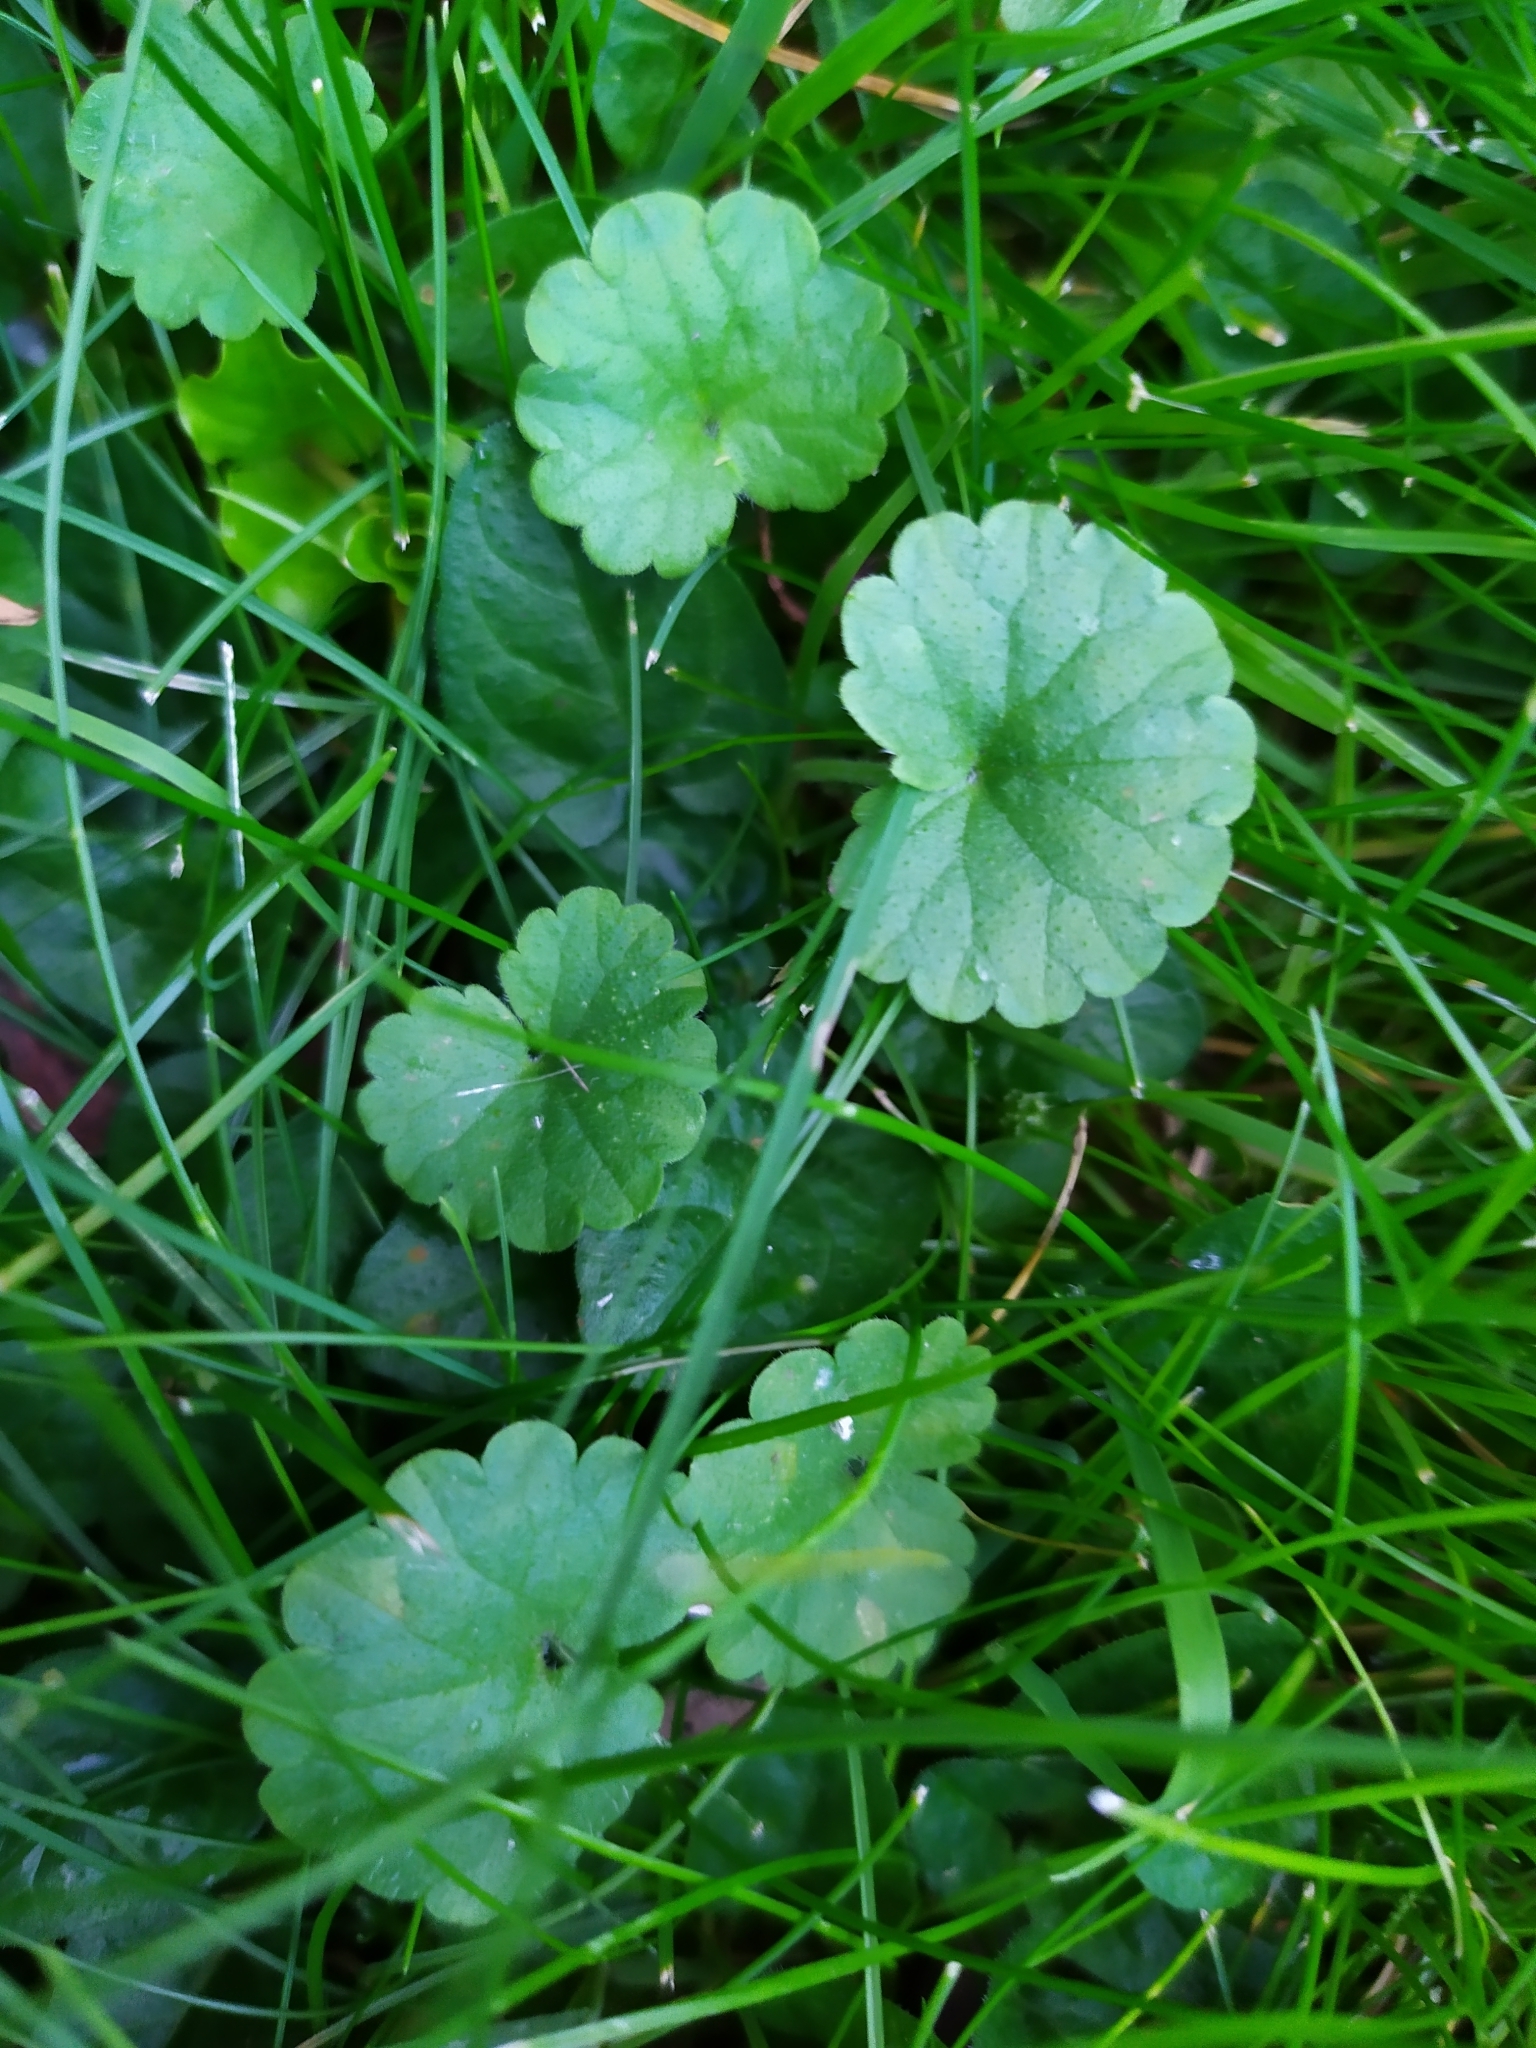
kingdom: Plantae
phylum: Tracheophyta
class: Magnoliopsida
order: Lamiales
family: Lamiaceae
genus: Glechoma
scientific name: Glechoma hederacea
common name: Ground ivy
